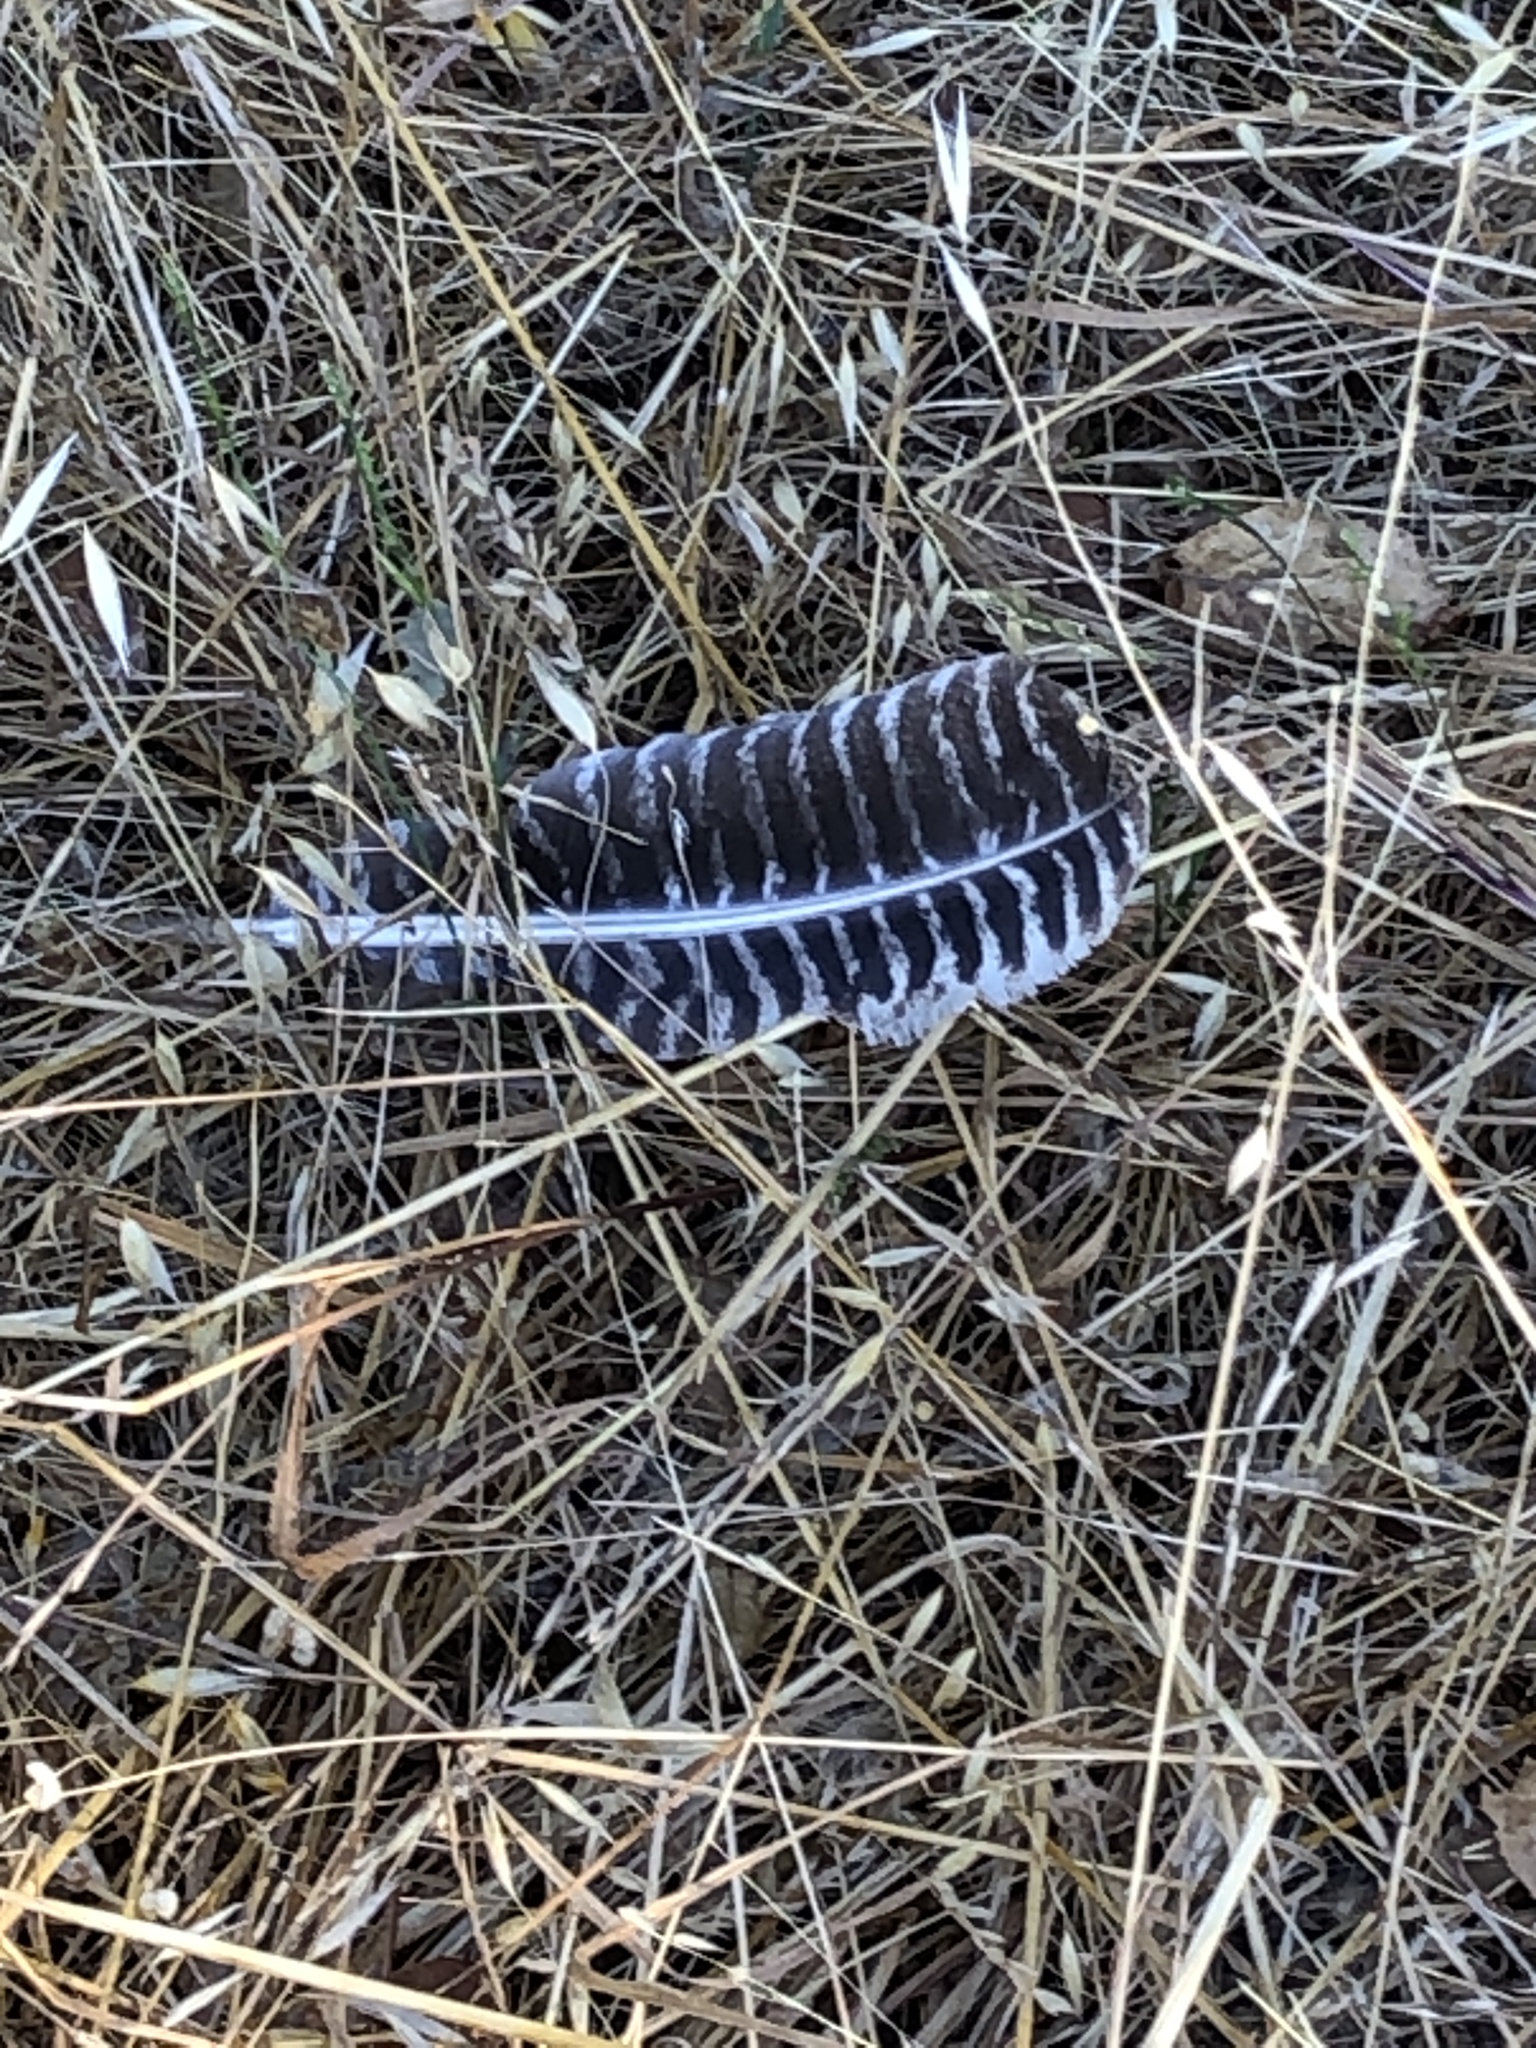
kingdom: Animalia
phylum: Chordata
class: Aves
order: Galliformes
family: Phasianidae
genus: Meleagris
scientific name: Meleagris gallopavo
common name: Wild turkey
